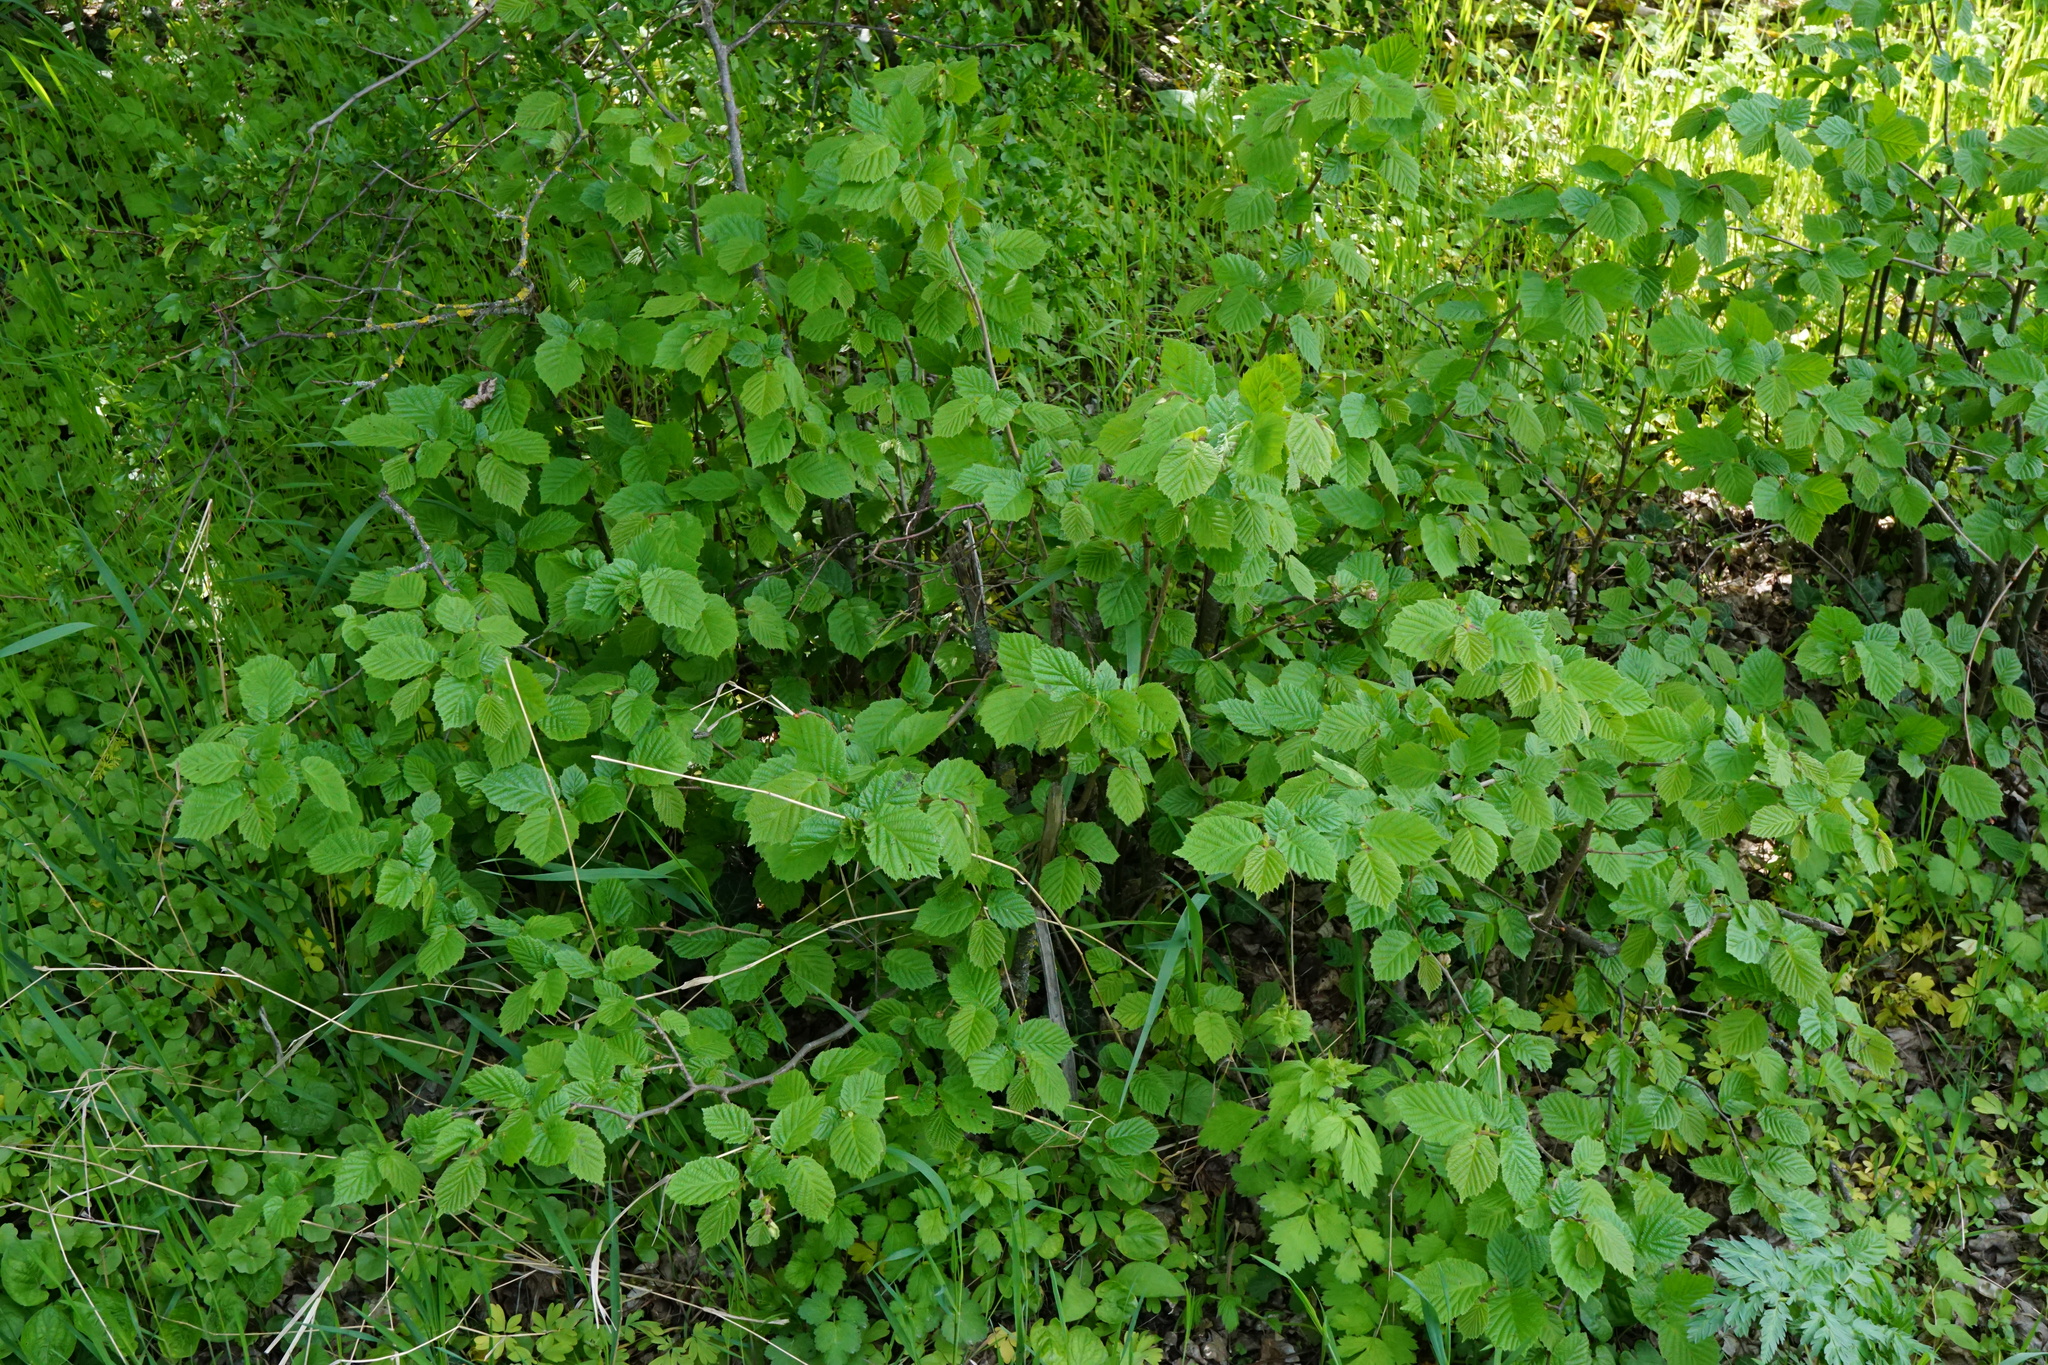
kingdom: Plantae
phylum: Tracheophyta
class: Magnoliopsida
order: Fagales
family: Betulaceae
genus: Corylus
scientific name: Corylus avellana
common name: European hazel
